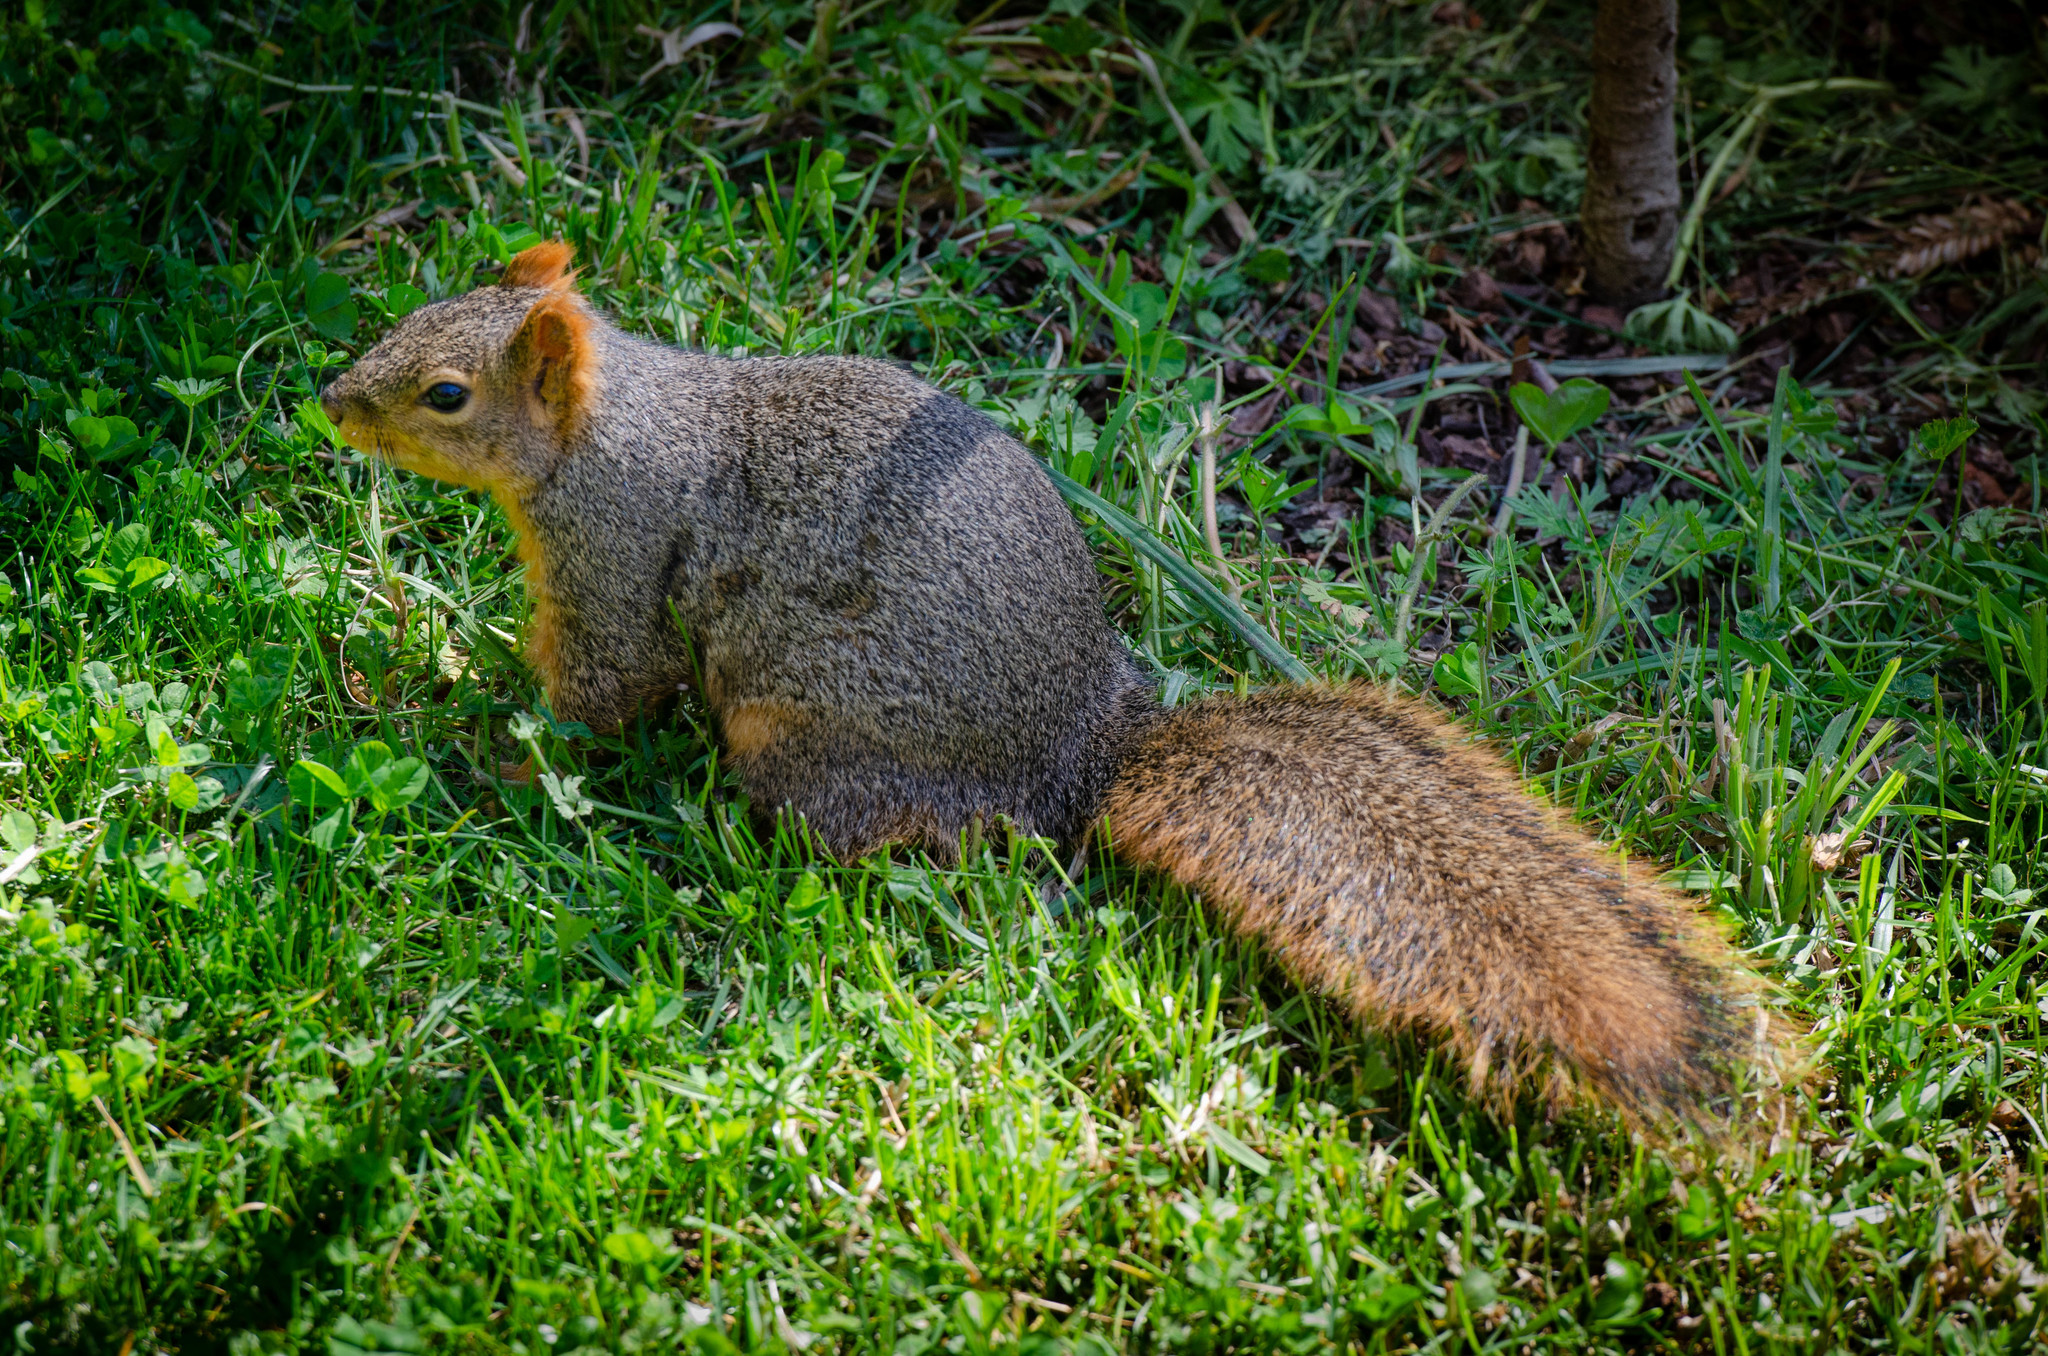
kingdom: Animalia
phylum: Chordata
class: Mammalia
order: Rodentia
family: Sciuridae
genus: Sciurus
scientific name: Sciurus niger
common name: Fox squirrel
